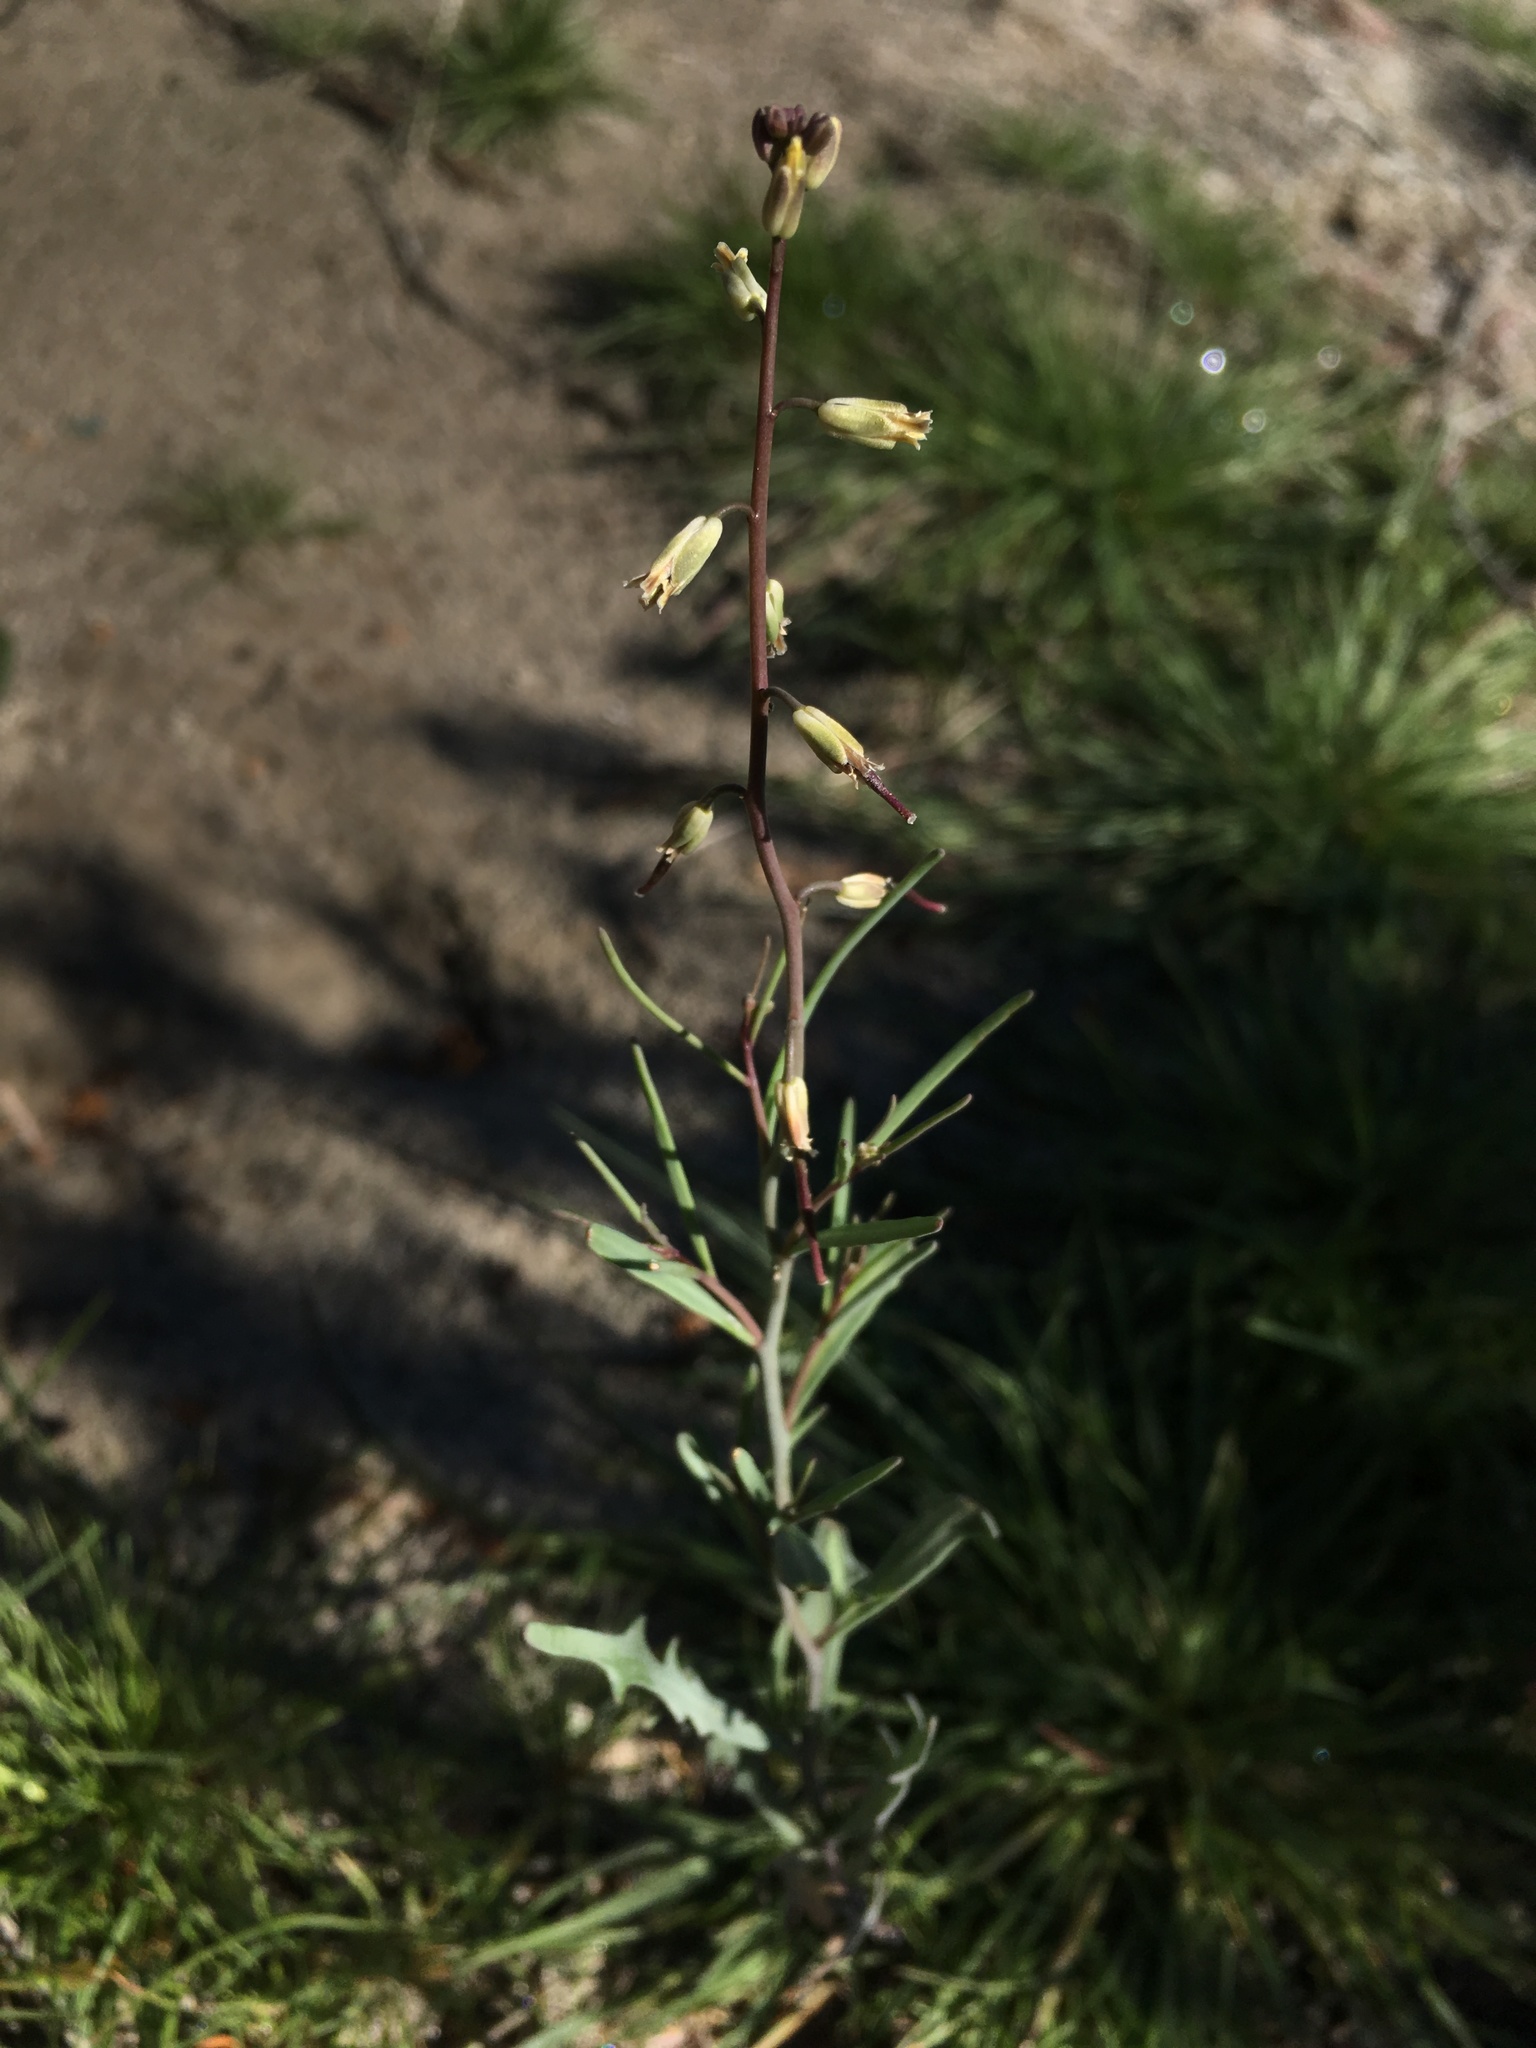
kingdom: Plantae
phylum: Tracheophyta
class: Magnoliopsida
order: Brassicales
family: Brassicaceae
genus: Streptanthus
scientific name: Streptanthus longirostris
